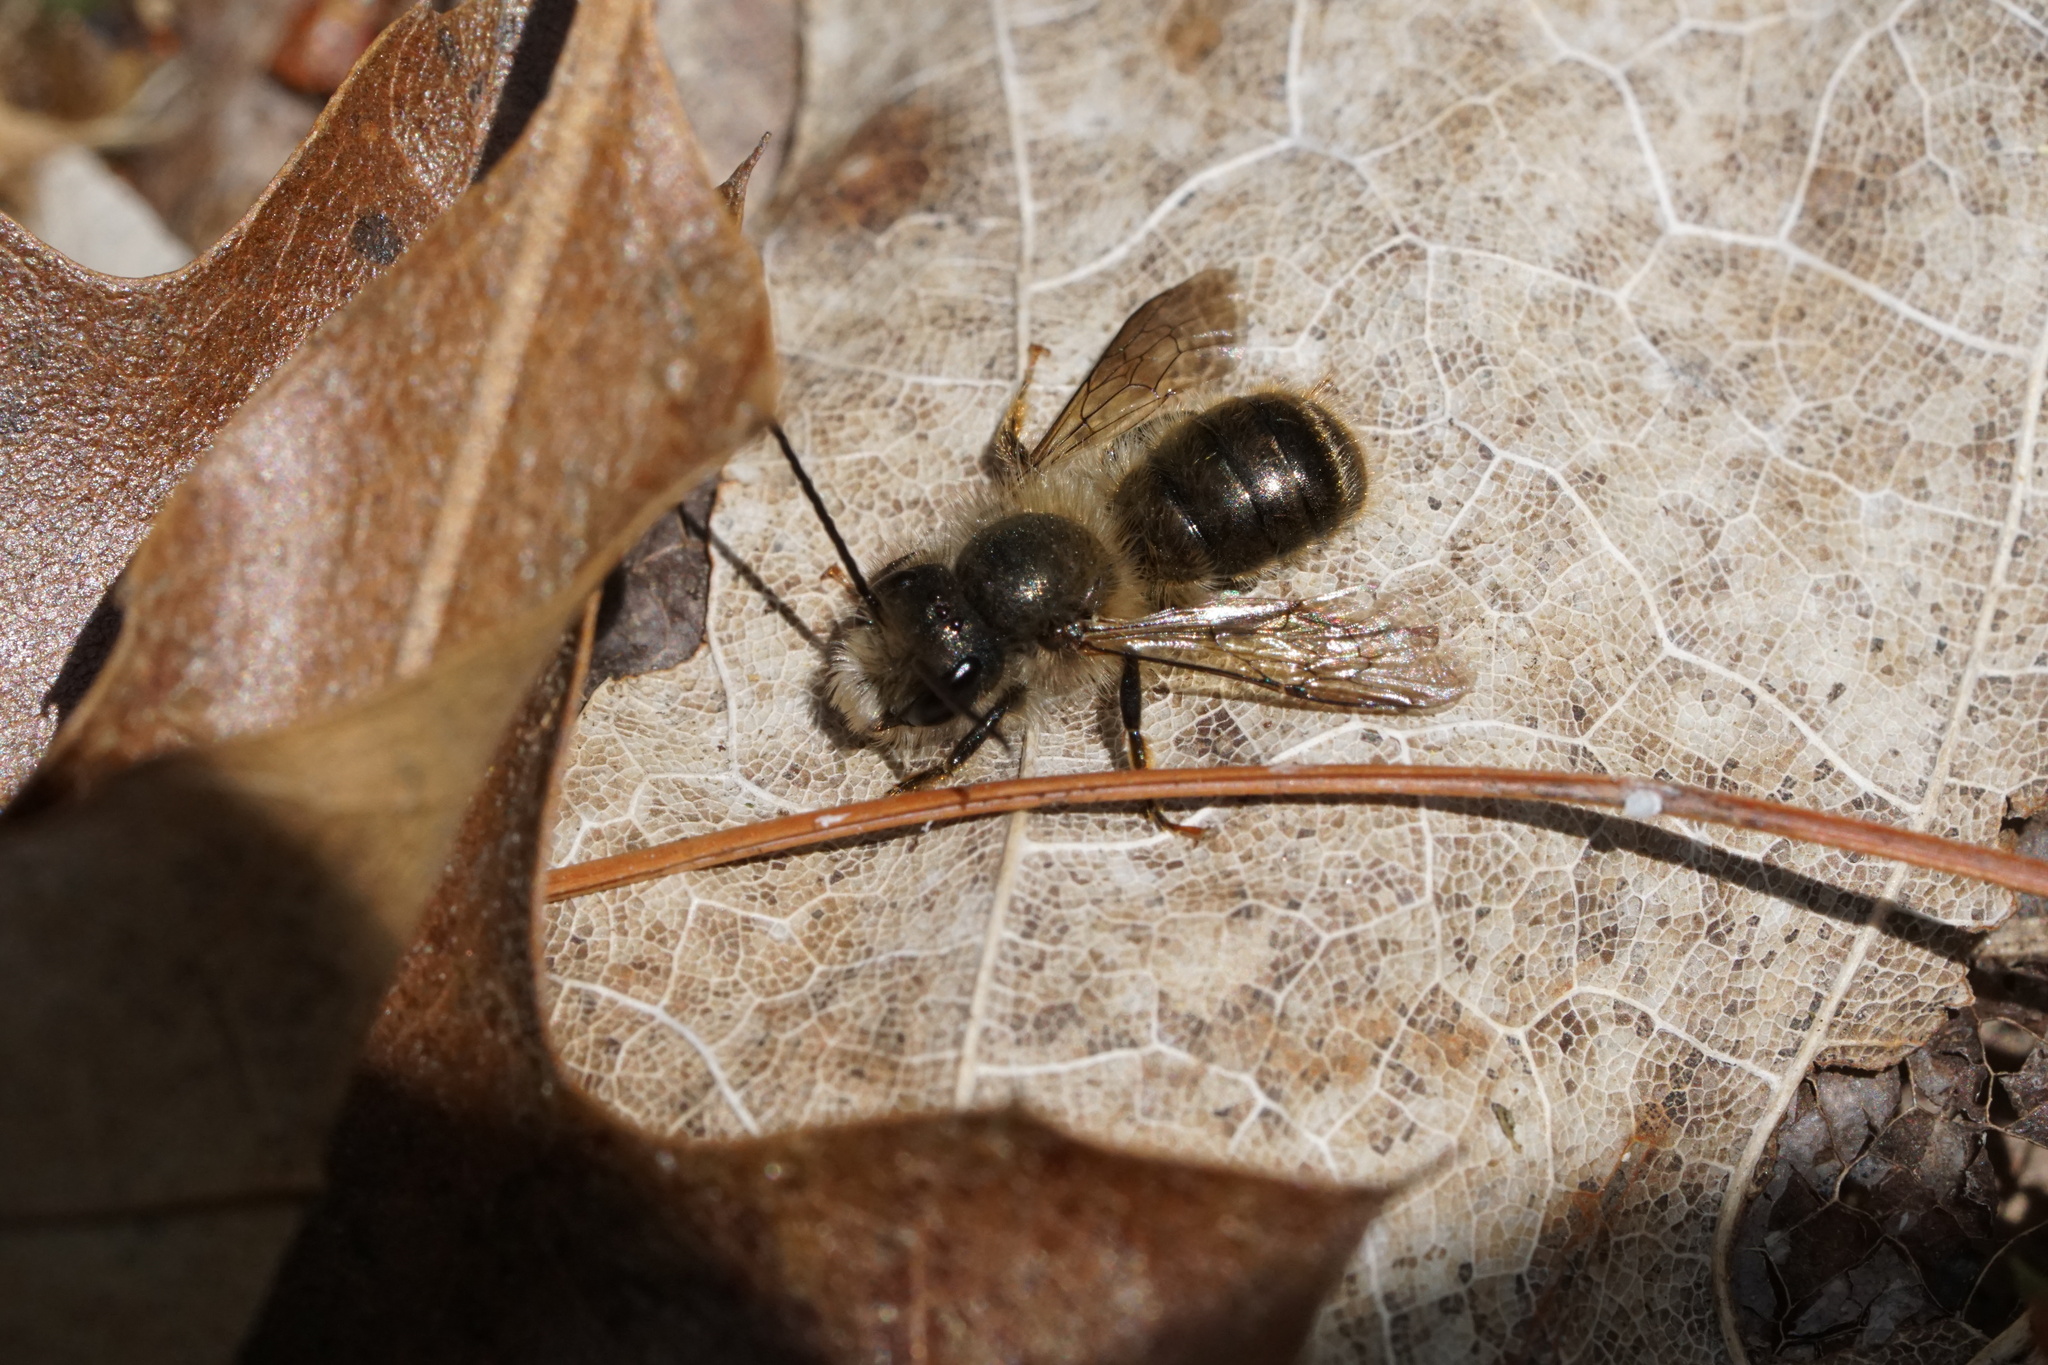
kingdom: Animalia
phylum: Arthropoda
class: Insecta
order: Hymenoptera
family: Megachilidae
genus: Osmia
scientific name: Osmia cornifrons
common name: Horn-faced bee
